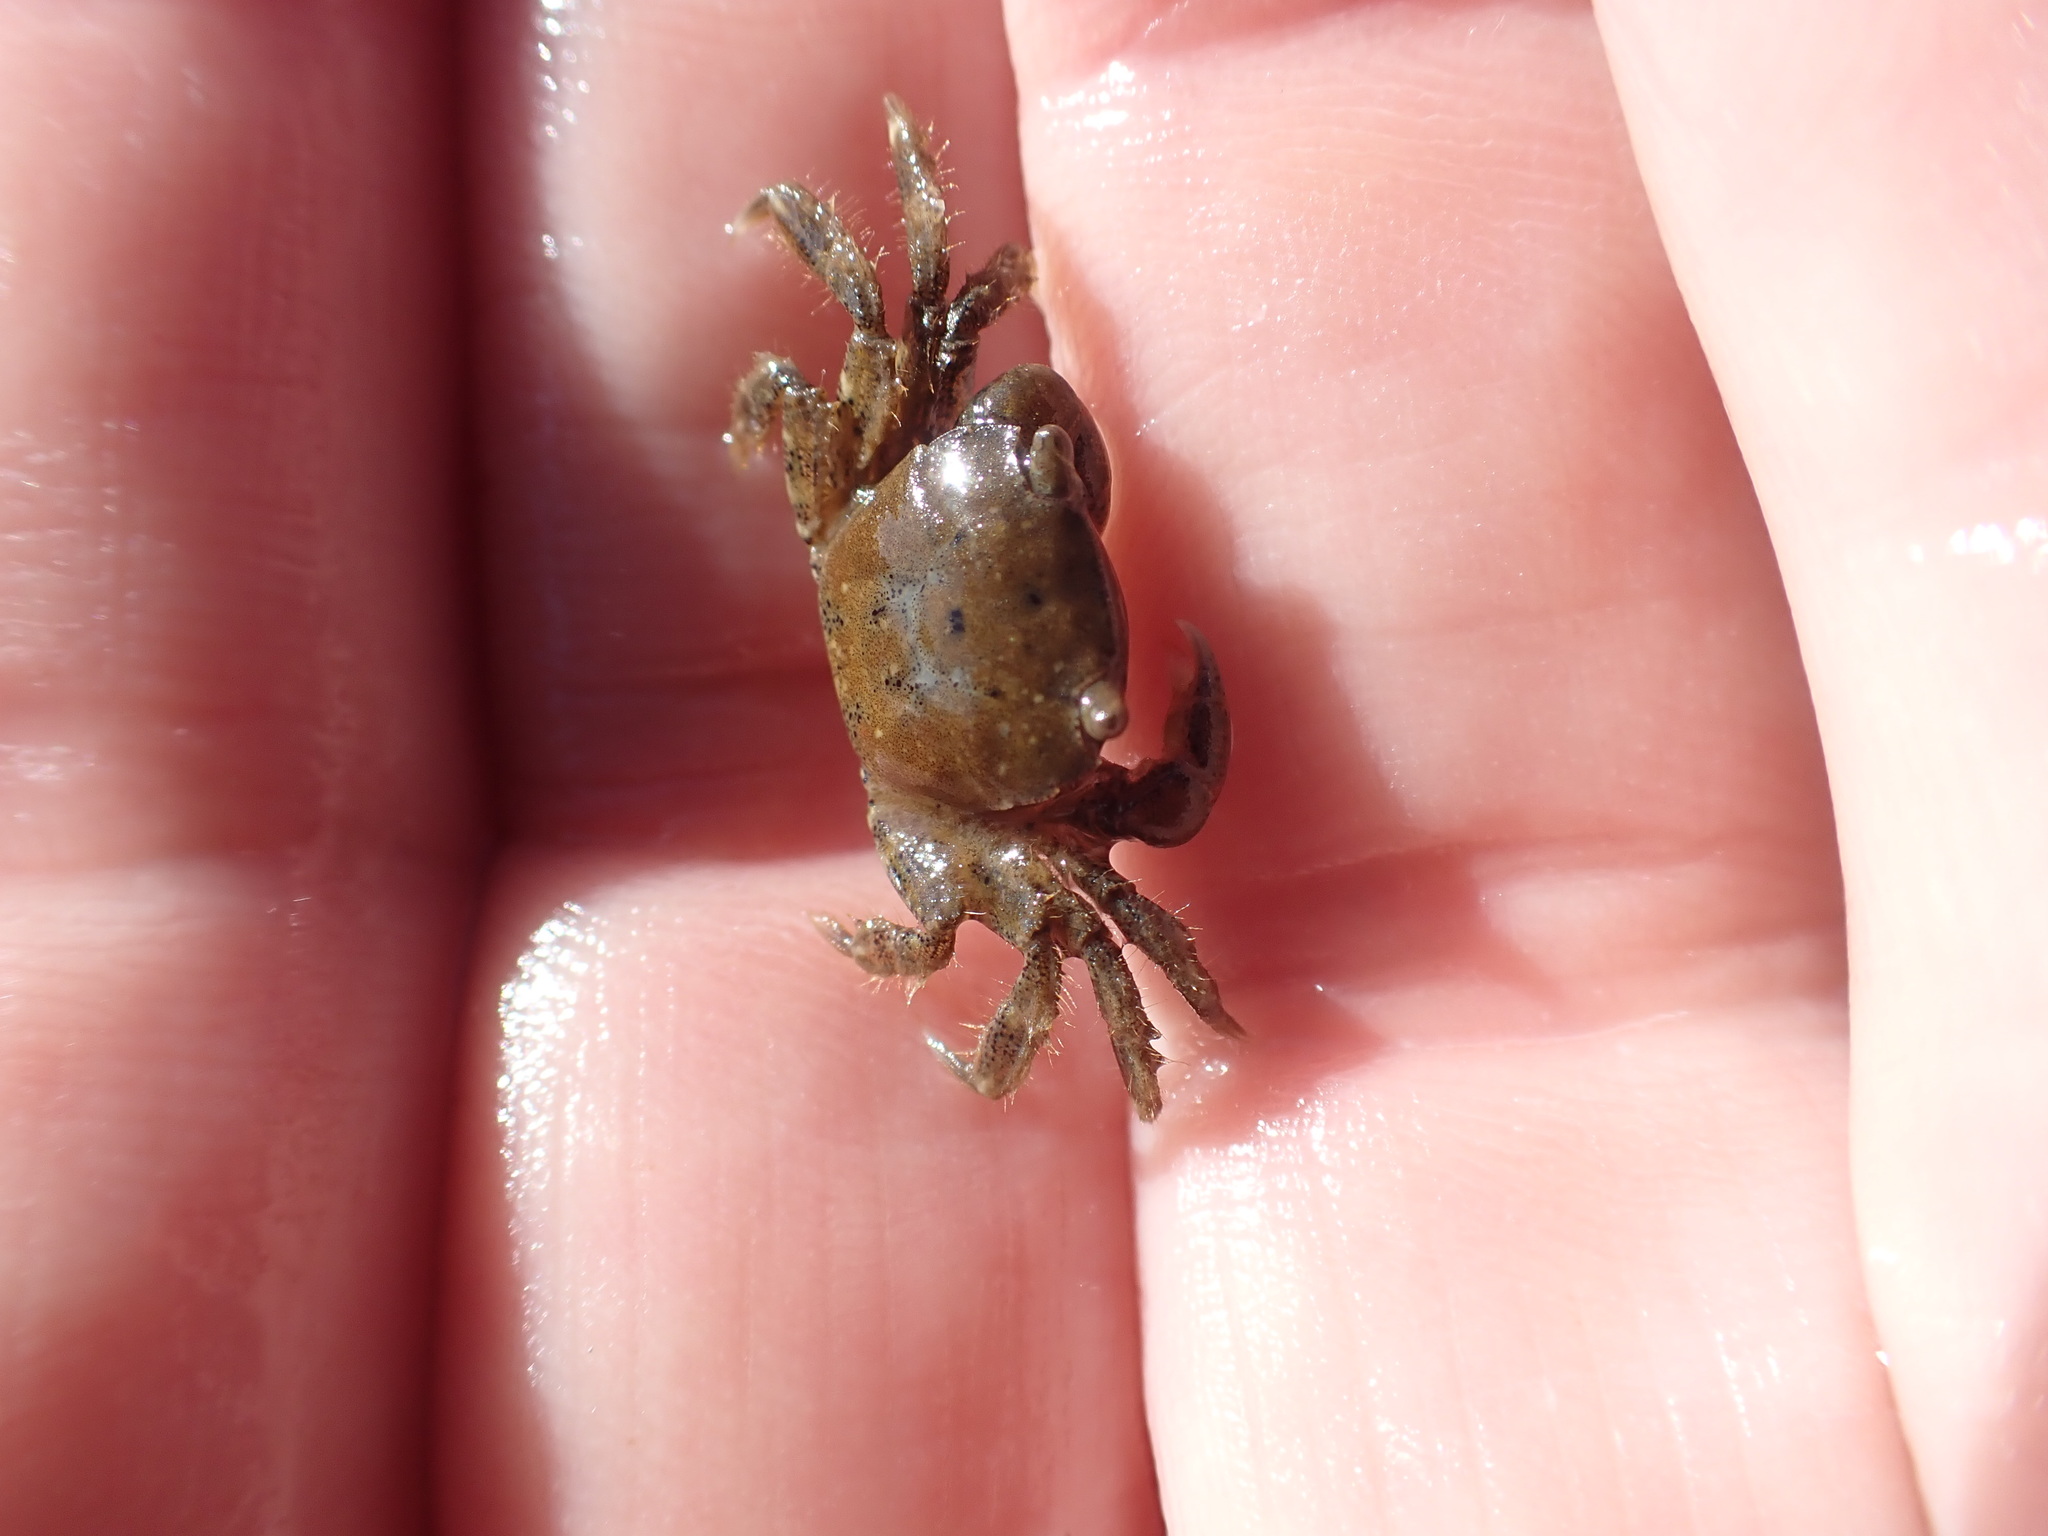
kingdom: Animalia
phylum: Arthropoda
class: Malacostraca
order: Decapoda
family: Varunidae
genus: Hemigrapsus
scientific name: Hemigrapsus crenulatus
